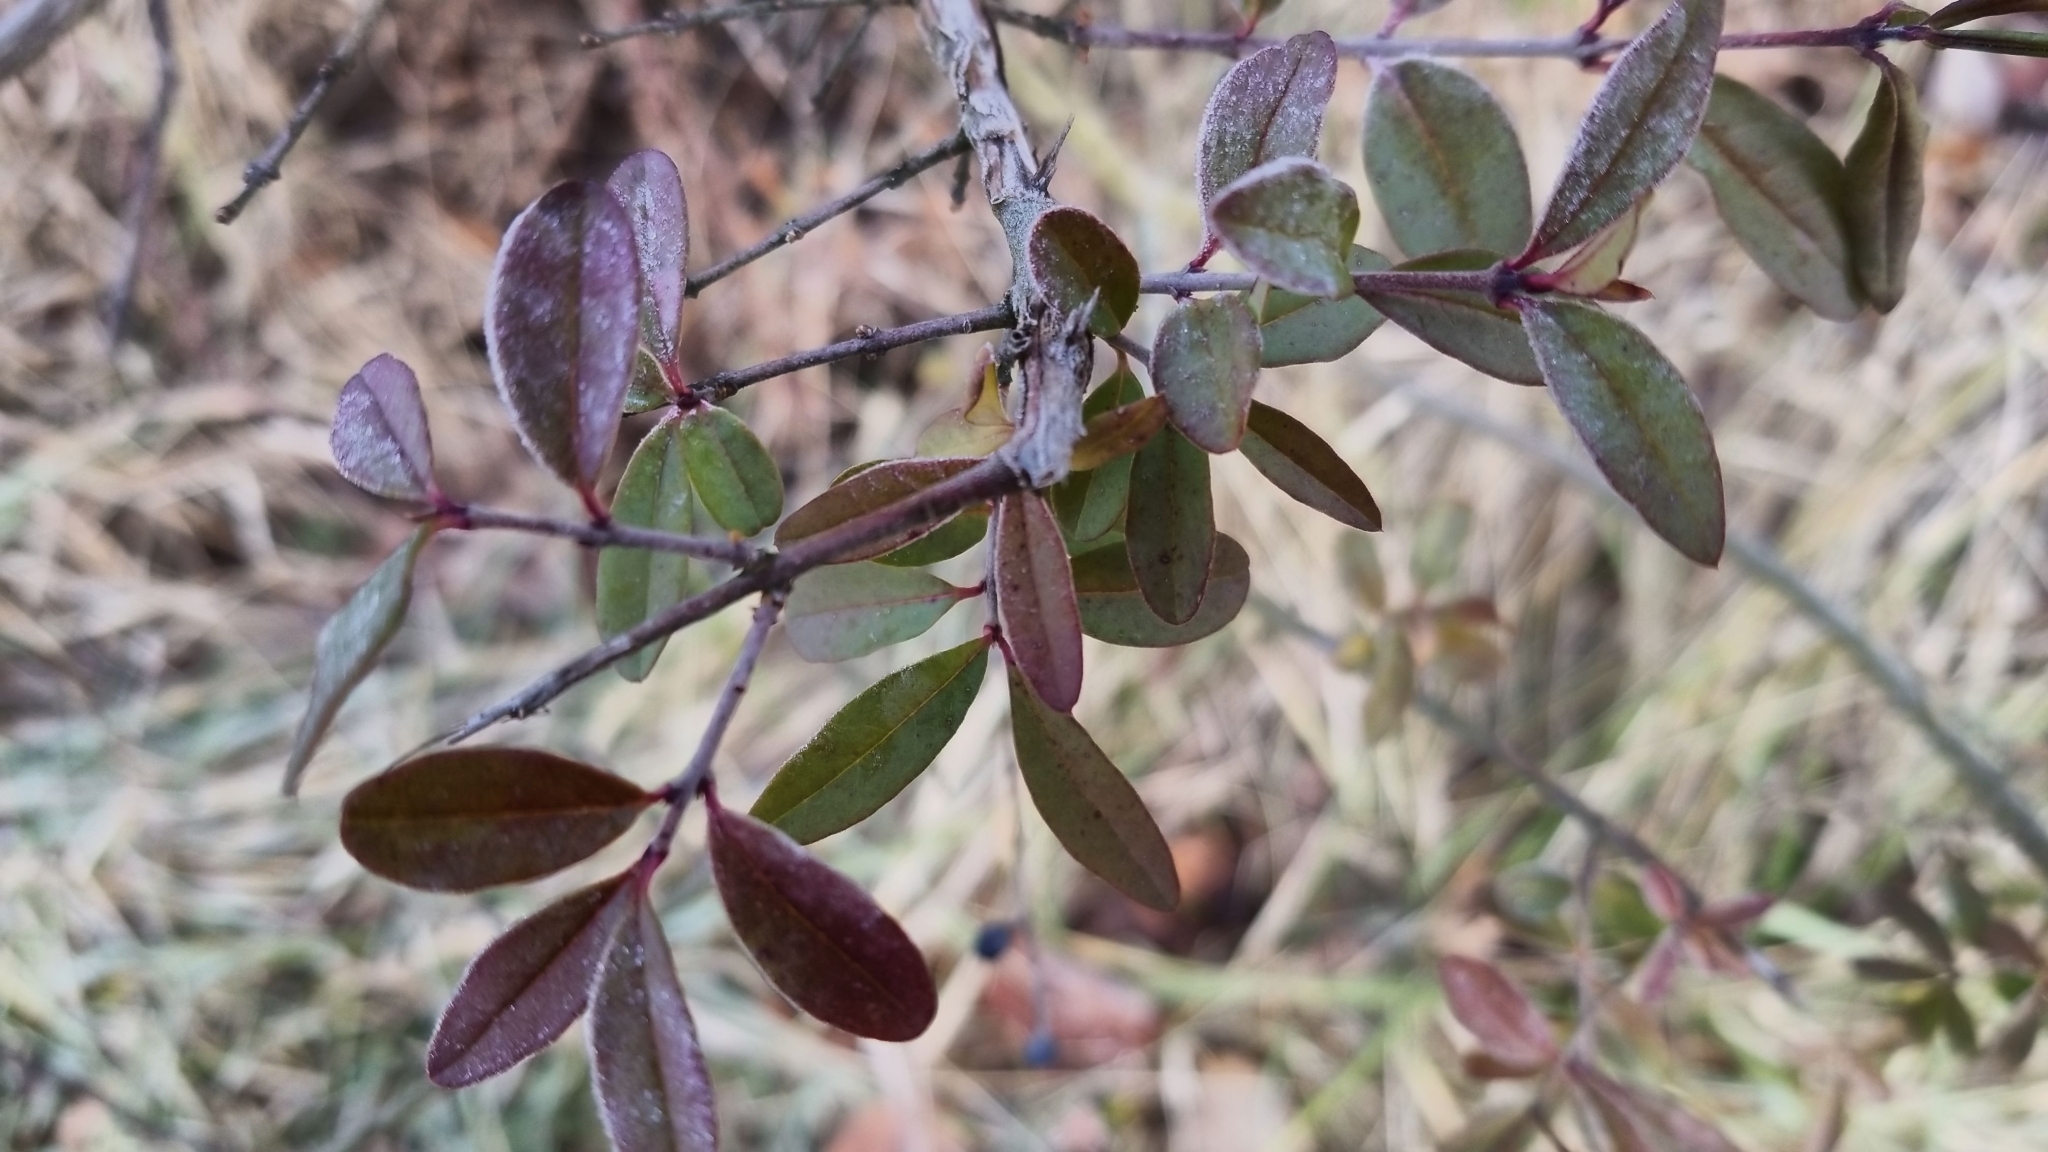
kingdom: Plantae
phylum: Tracheophyta
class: Magnoliopsida
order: Lamiales
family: Oleaceae
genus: Ligustrum
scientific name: Ligustrum
